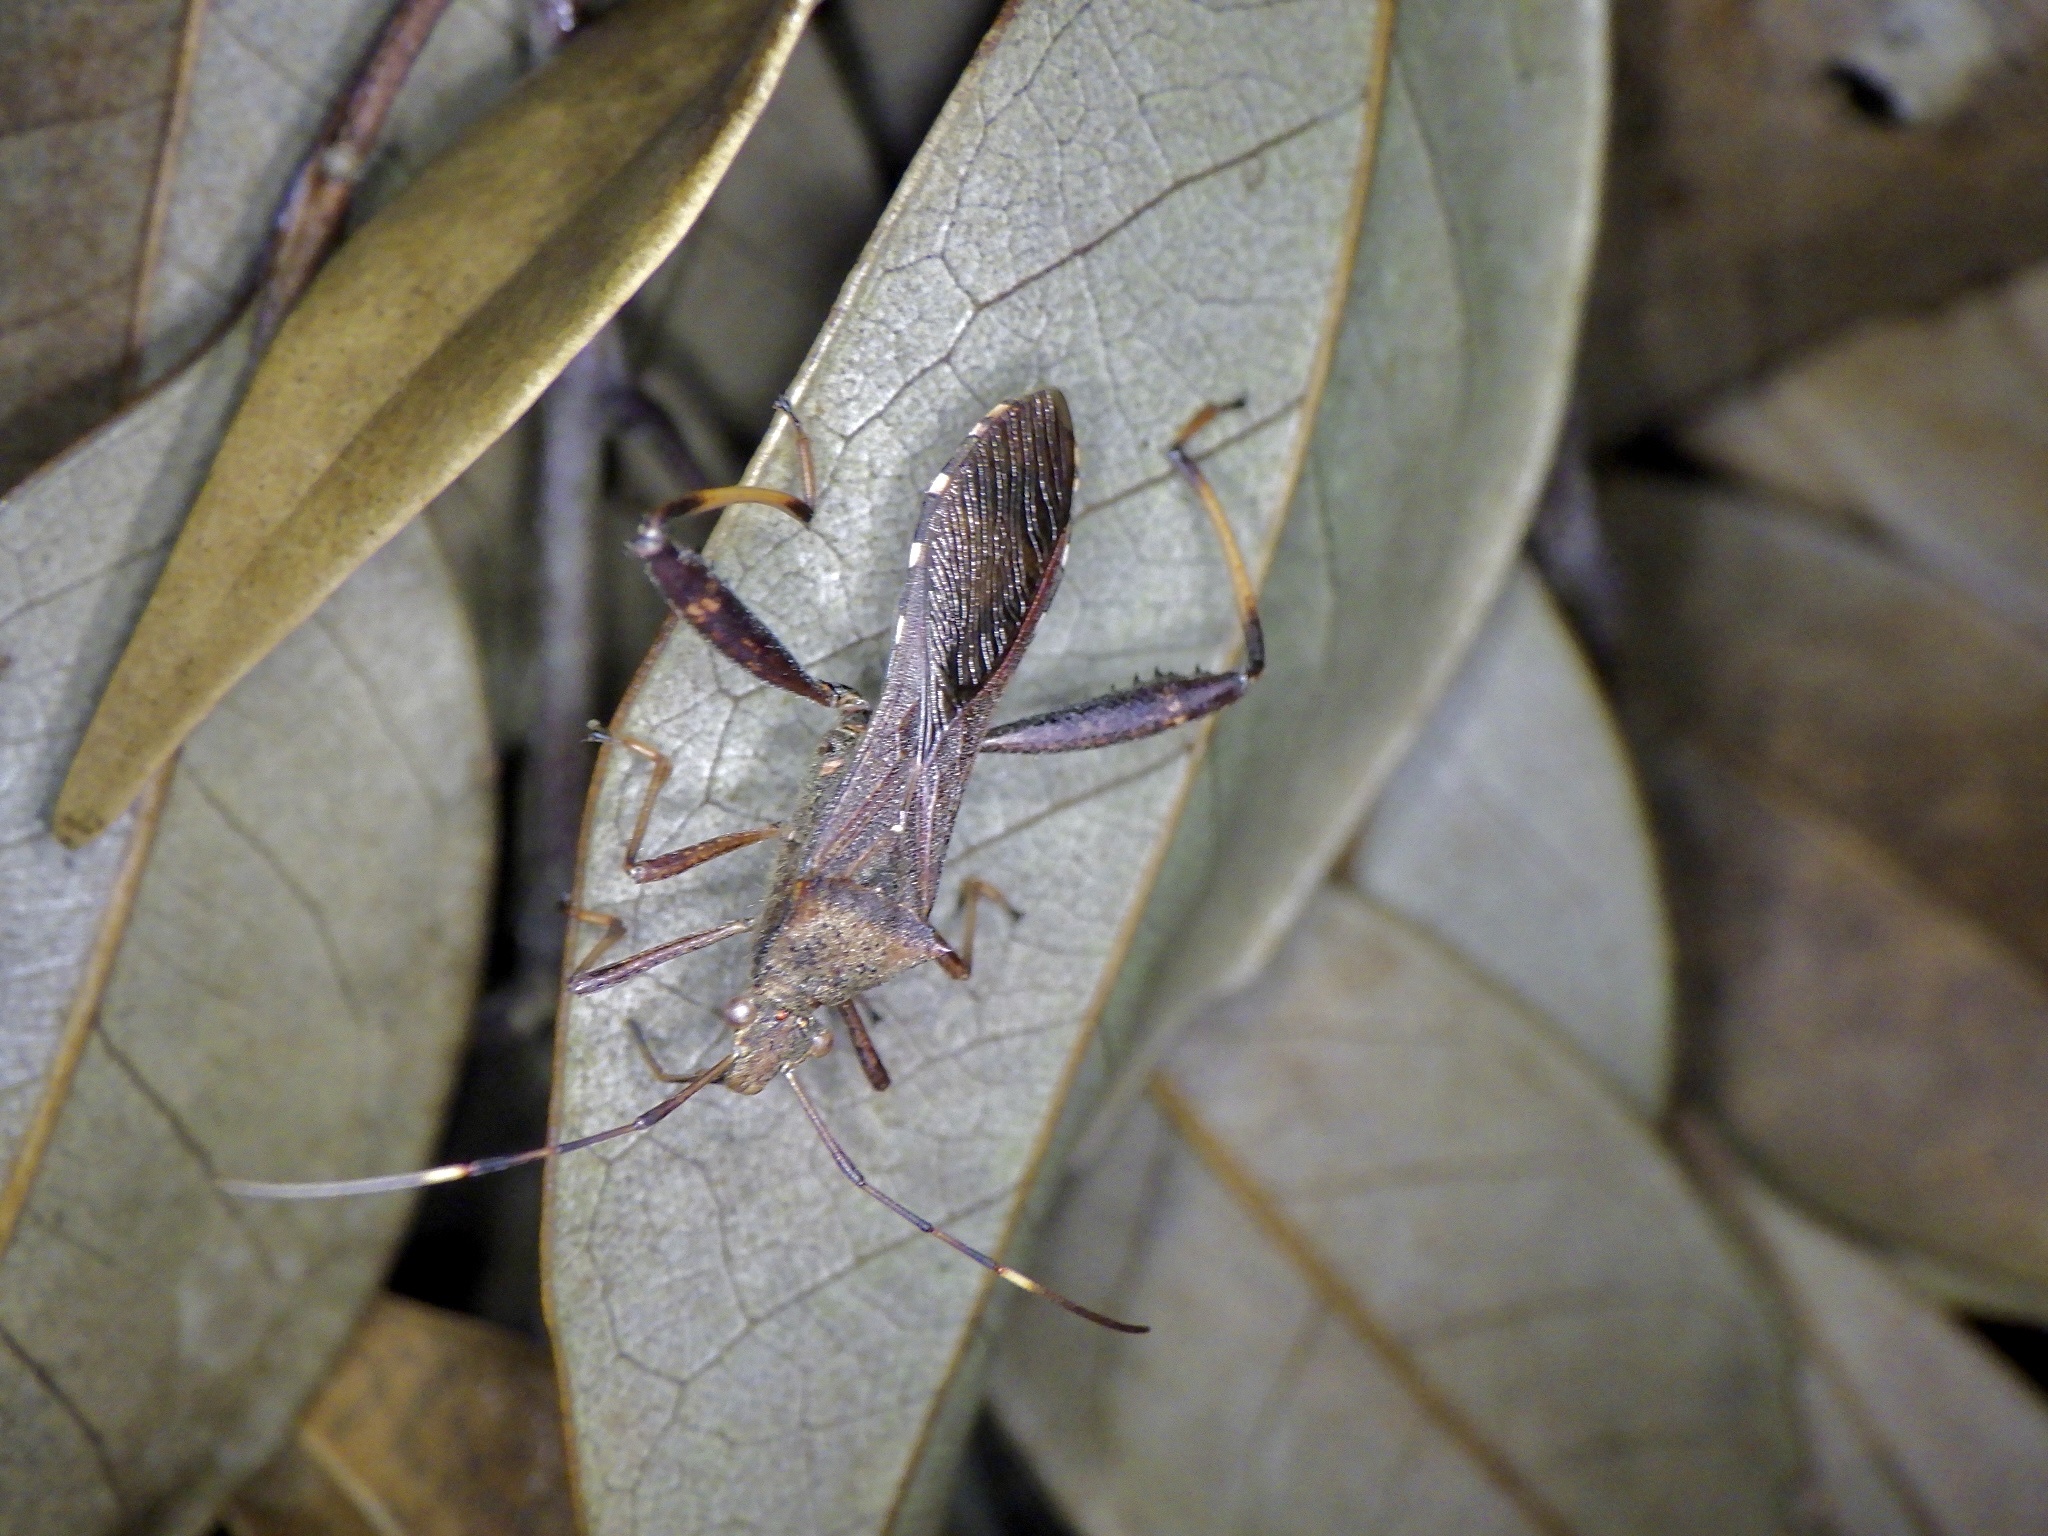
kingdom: Animalia
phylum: Arthropoda
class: Insecta
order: Hemiptera
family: Alydidae
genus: Riptortus
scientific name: Riptortus pedestris
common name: Bean bug
